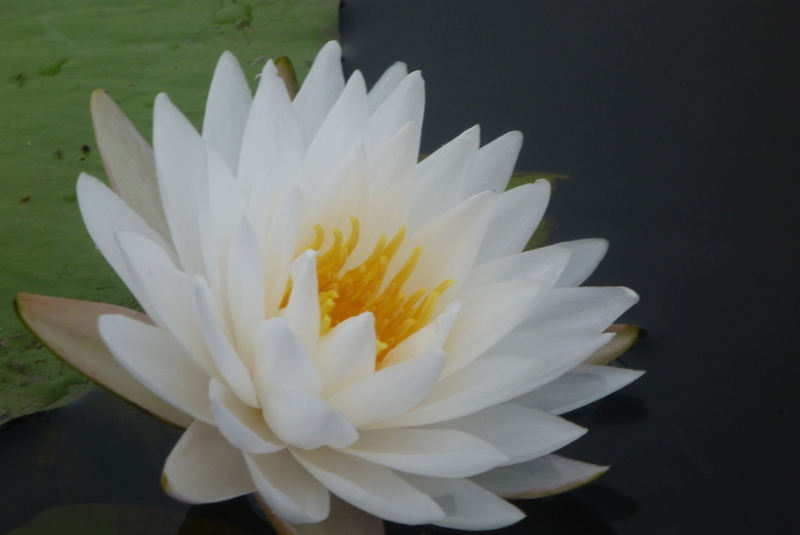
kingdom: Plantae
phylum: Tracheophyta
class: Magnoliopsida
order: Nymphaeales
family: Nymphaeaceae
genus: Nymphaea
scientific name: Nymphaea odorata
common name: Fragrant water-lily
